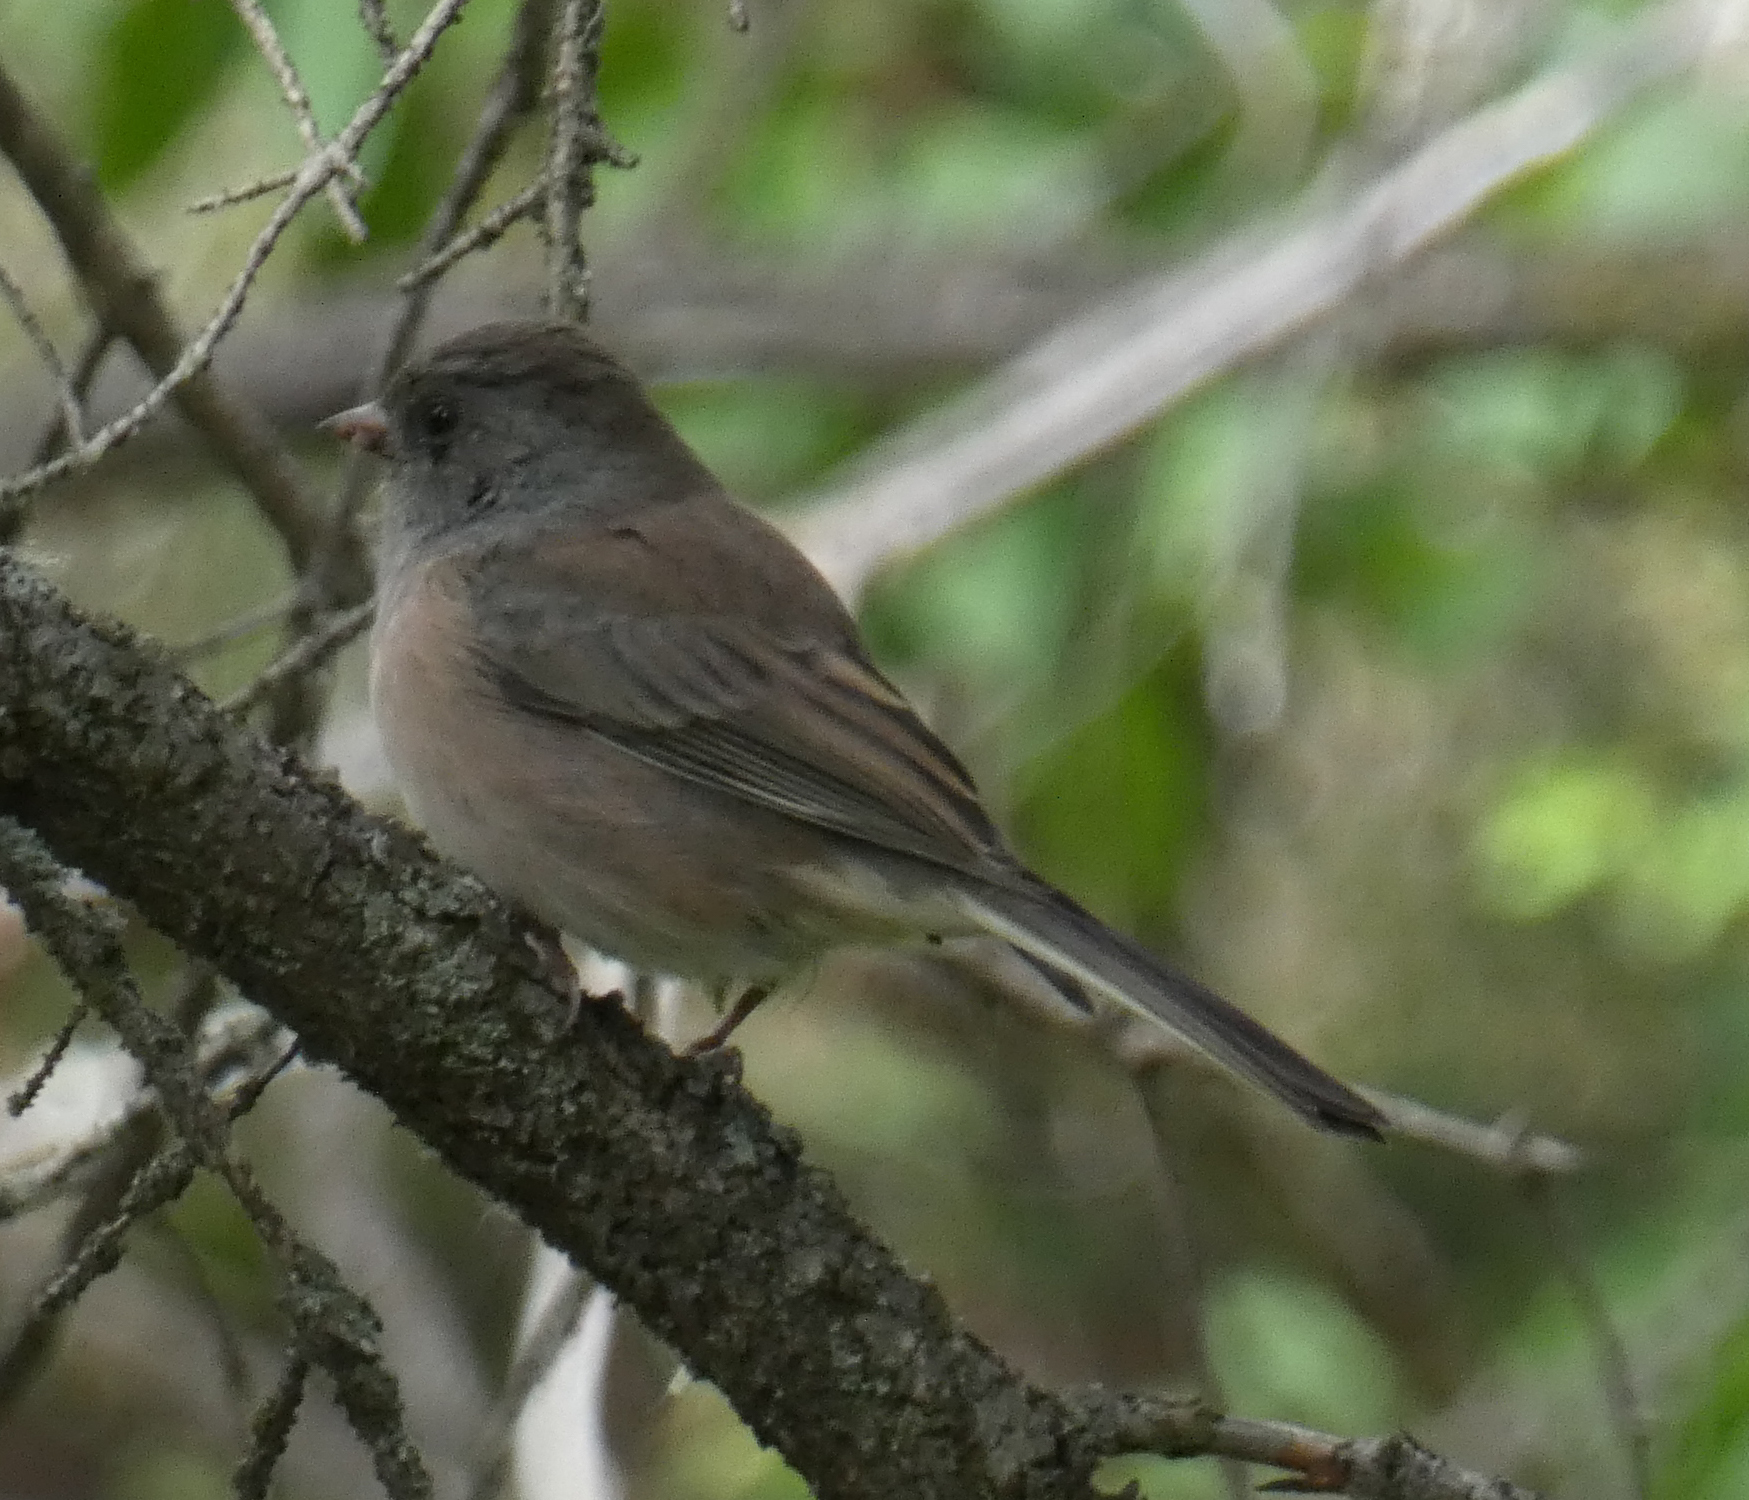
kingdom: Animalia
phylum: Chordata
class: Aves
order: Passeriformes
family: Passerellidae
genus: Junco
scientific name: Junco hyemalis
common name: Dark-eyed junco
